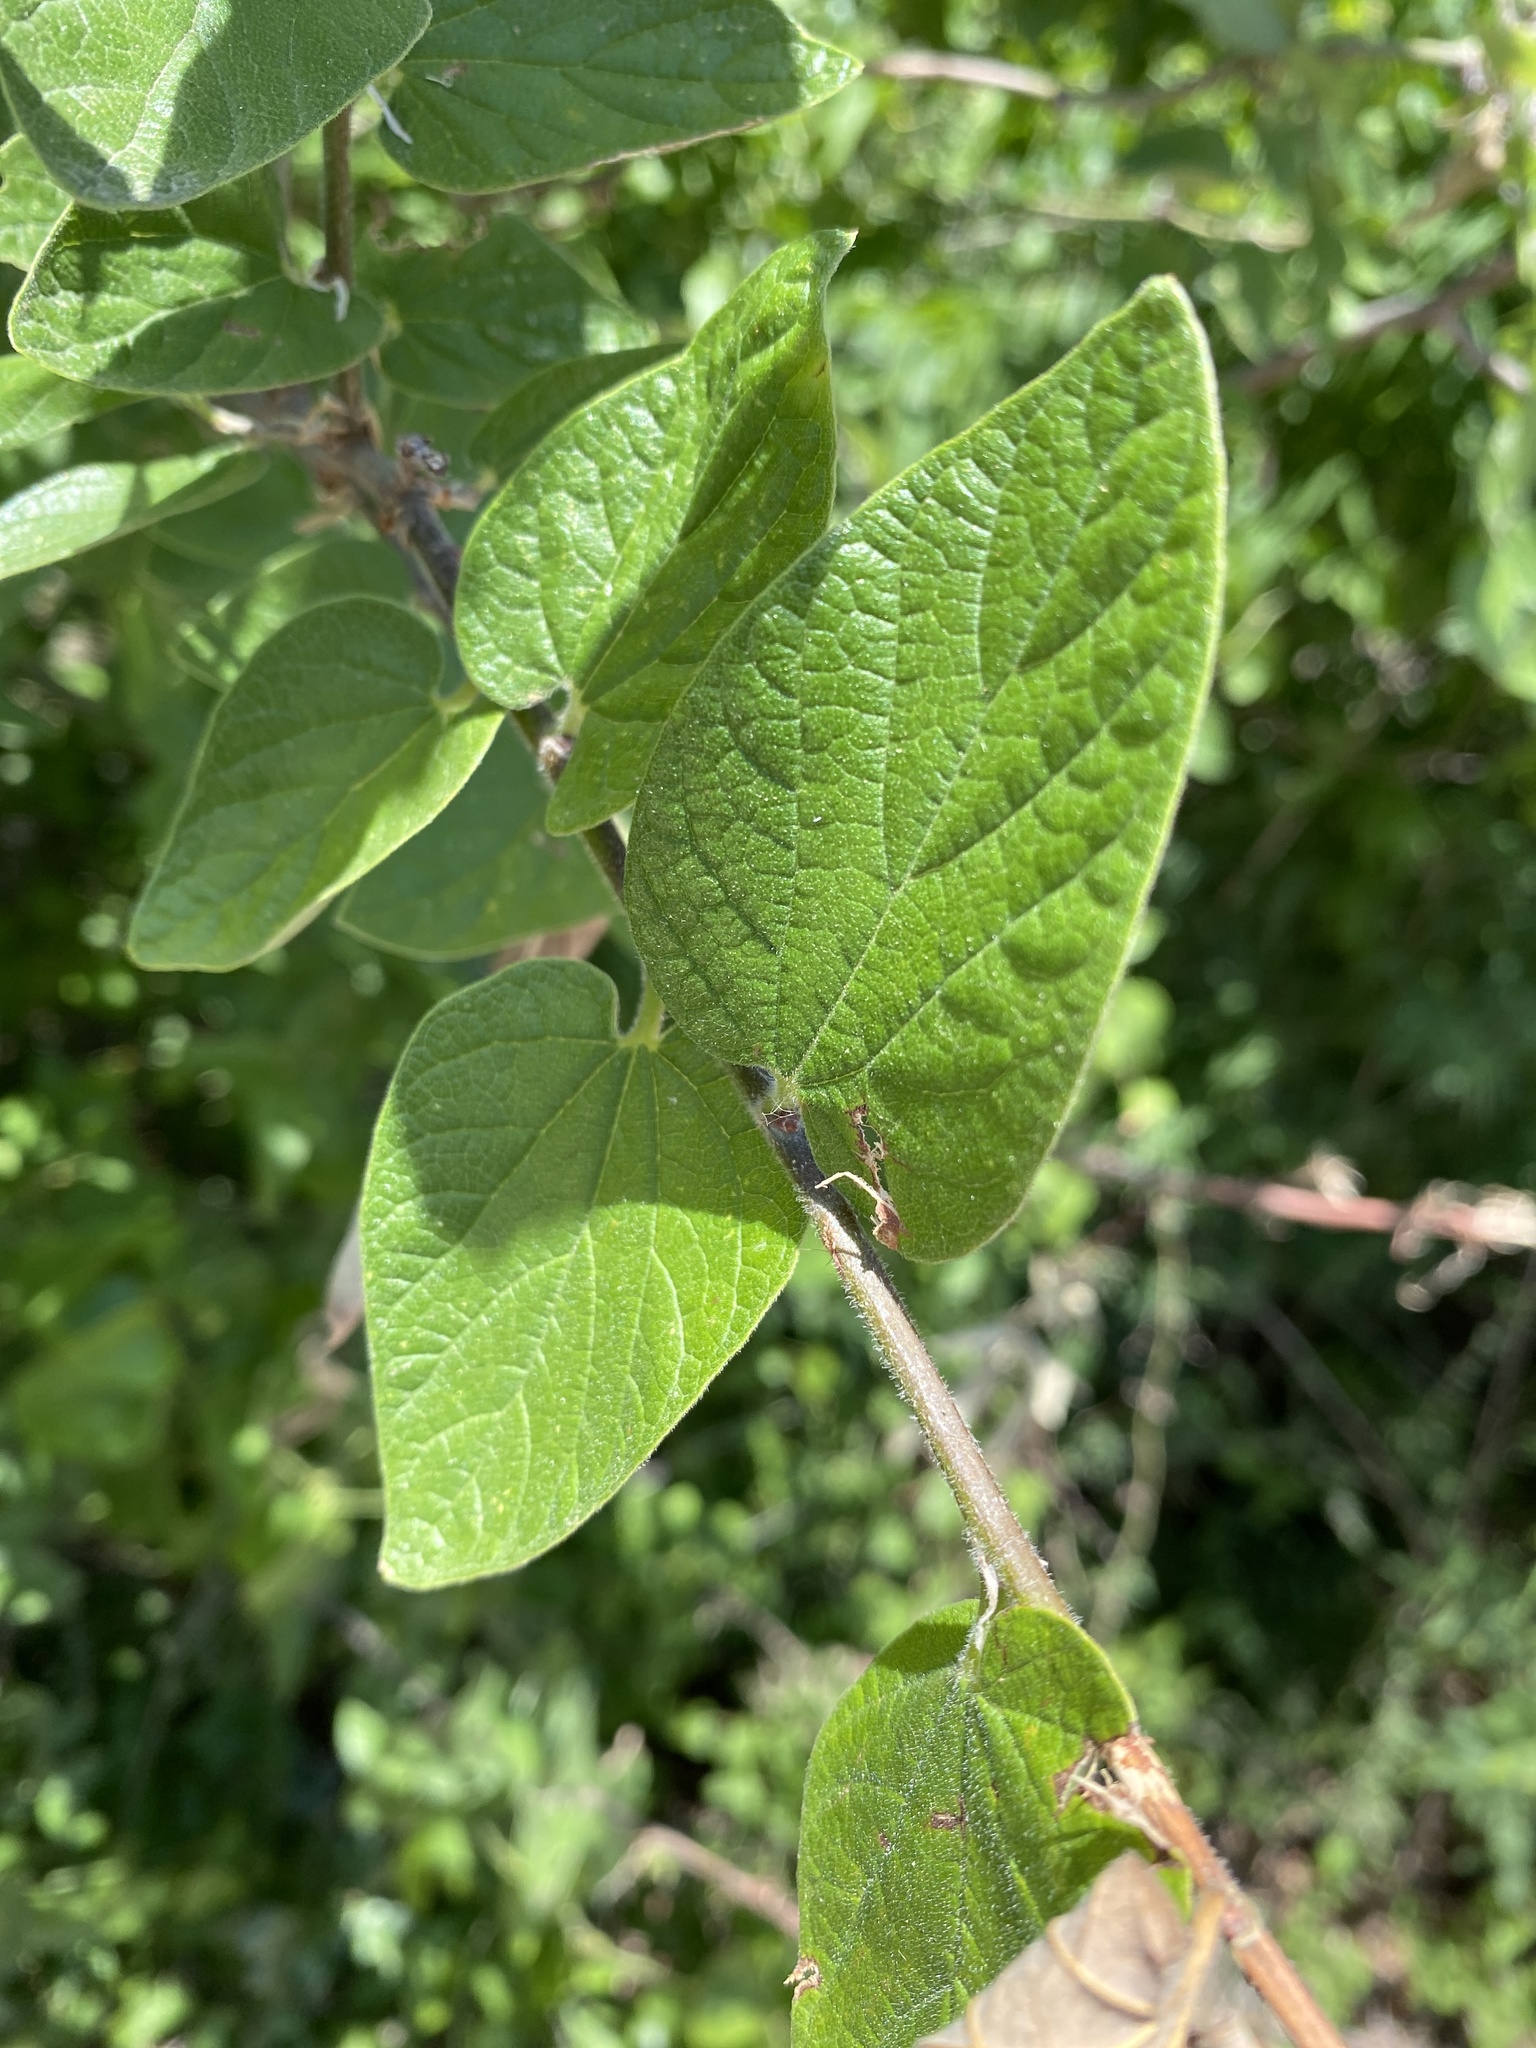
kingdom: Plantae
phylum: Tracheophyta
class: Magnoliopsida
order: Rosales
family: Cannabaceae
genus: Celtis
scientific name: Celtis reticulata
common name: Netleaf hackberry
